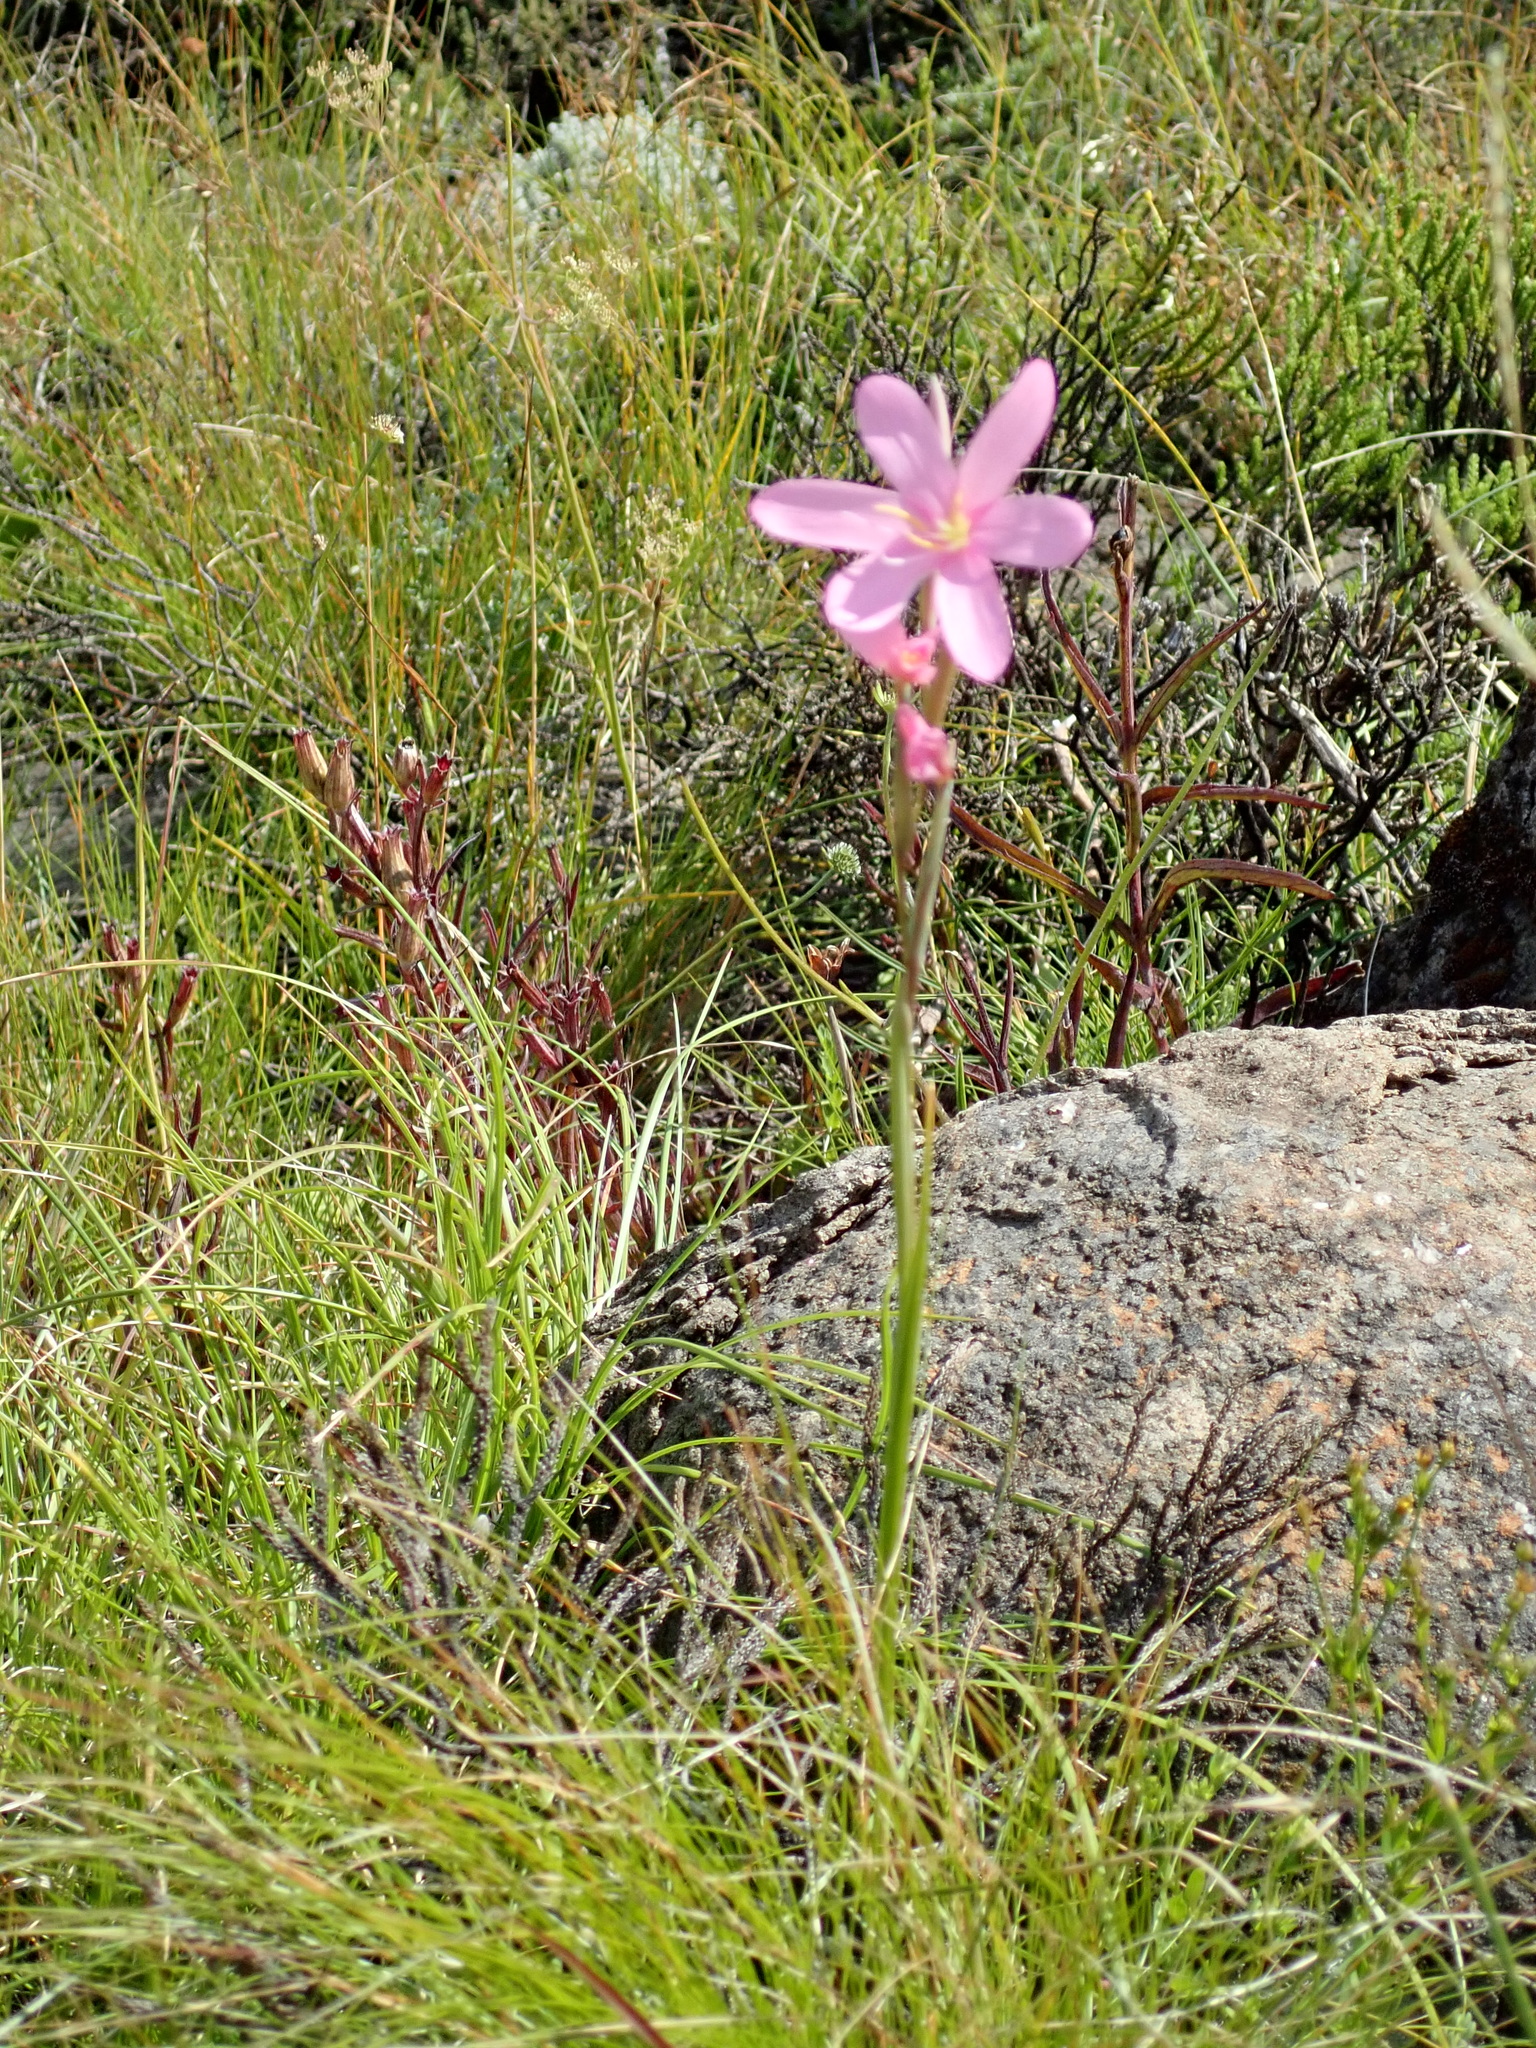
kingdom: Plantae
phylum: Tracheophyta
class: Liliopsida
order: Asparagales
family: Iridaceae
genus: Hesperantha
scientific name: Hesperantha baurii
